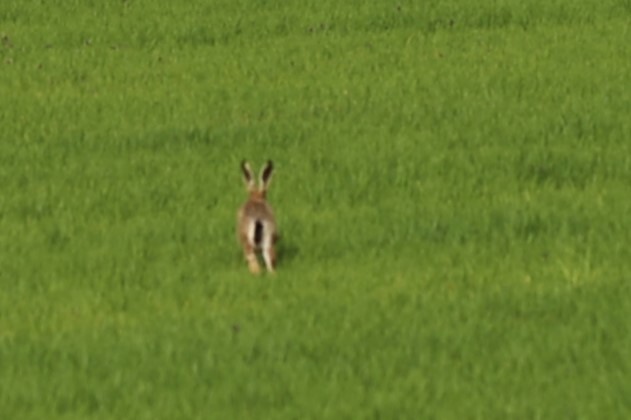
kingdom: Animalia
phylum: Chordata
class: Mammalia
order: Lagomorpha
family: Leporidae
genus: Lepus
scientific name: Lepus europaeus
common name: European hare
